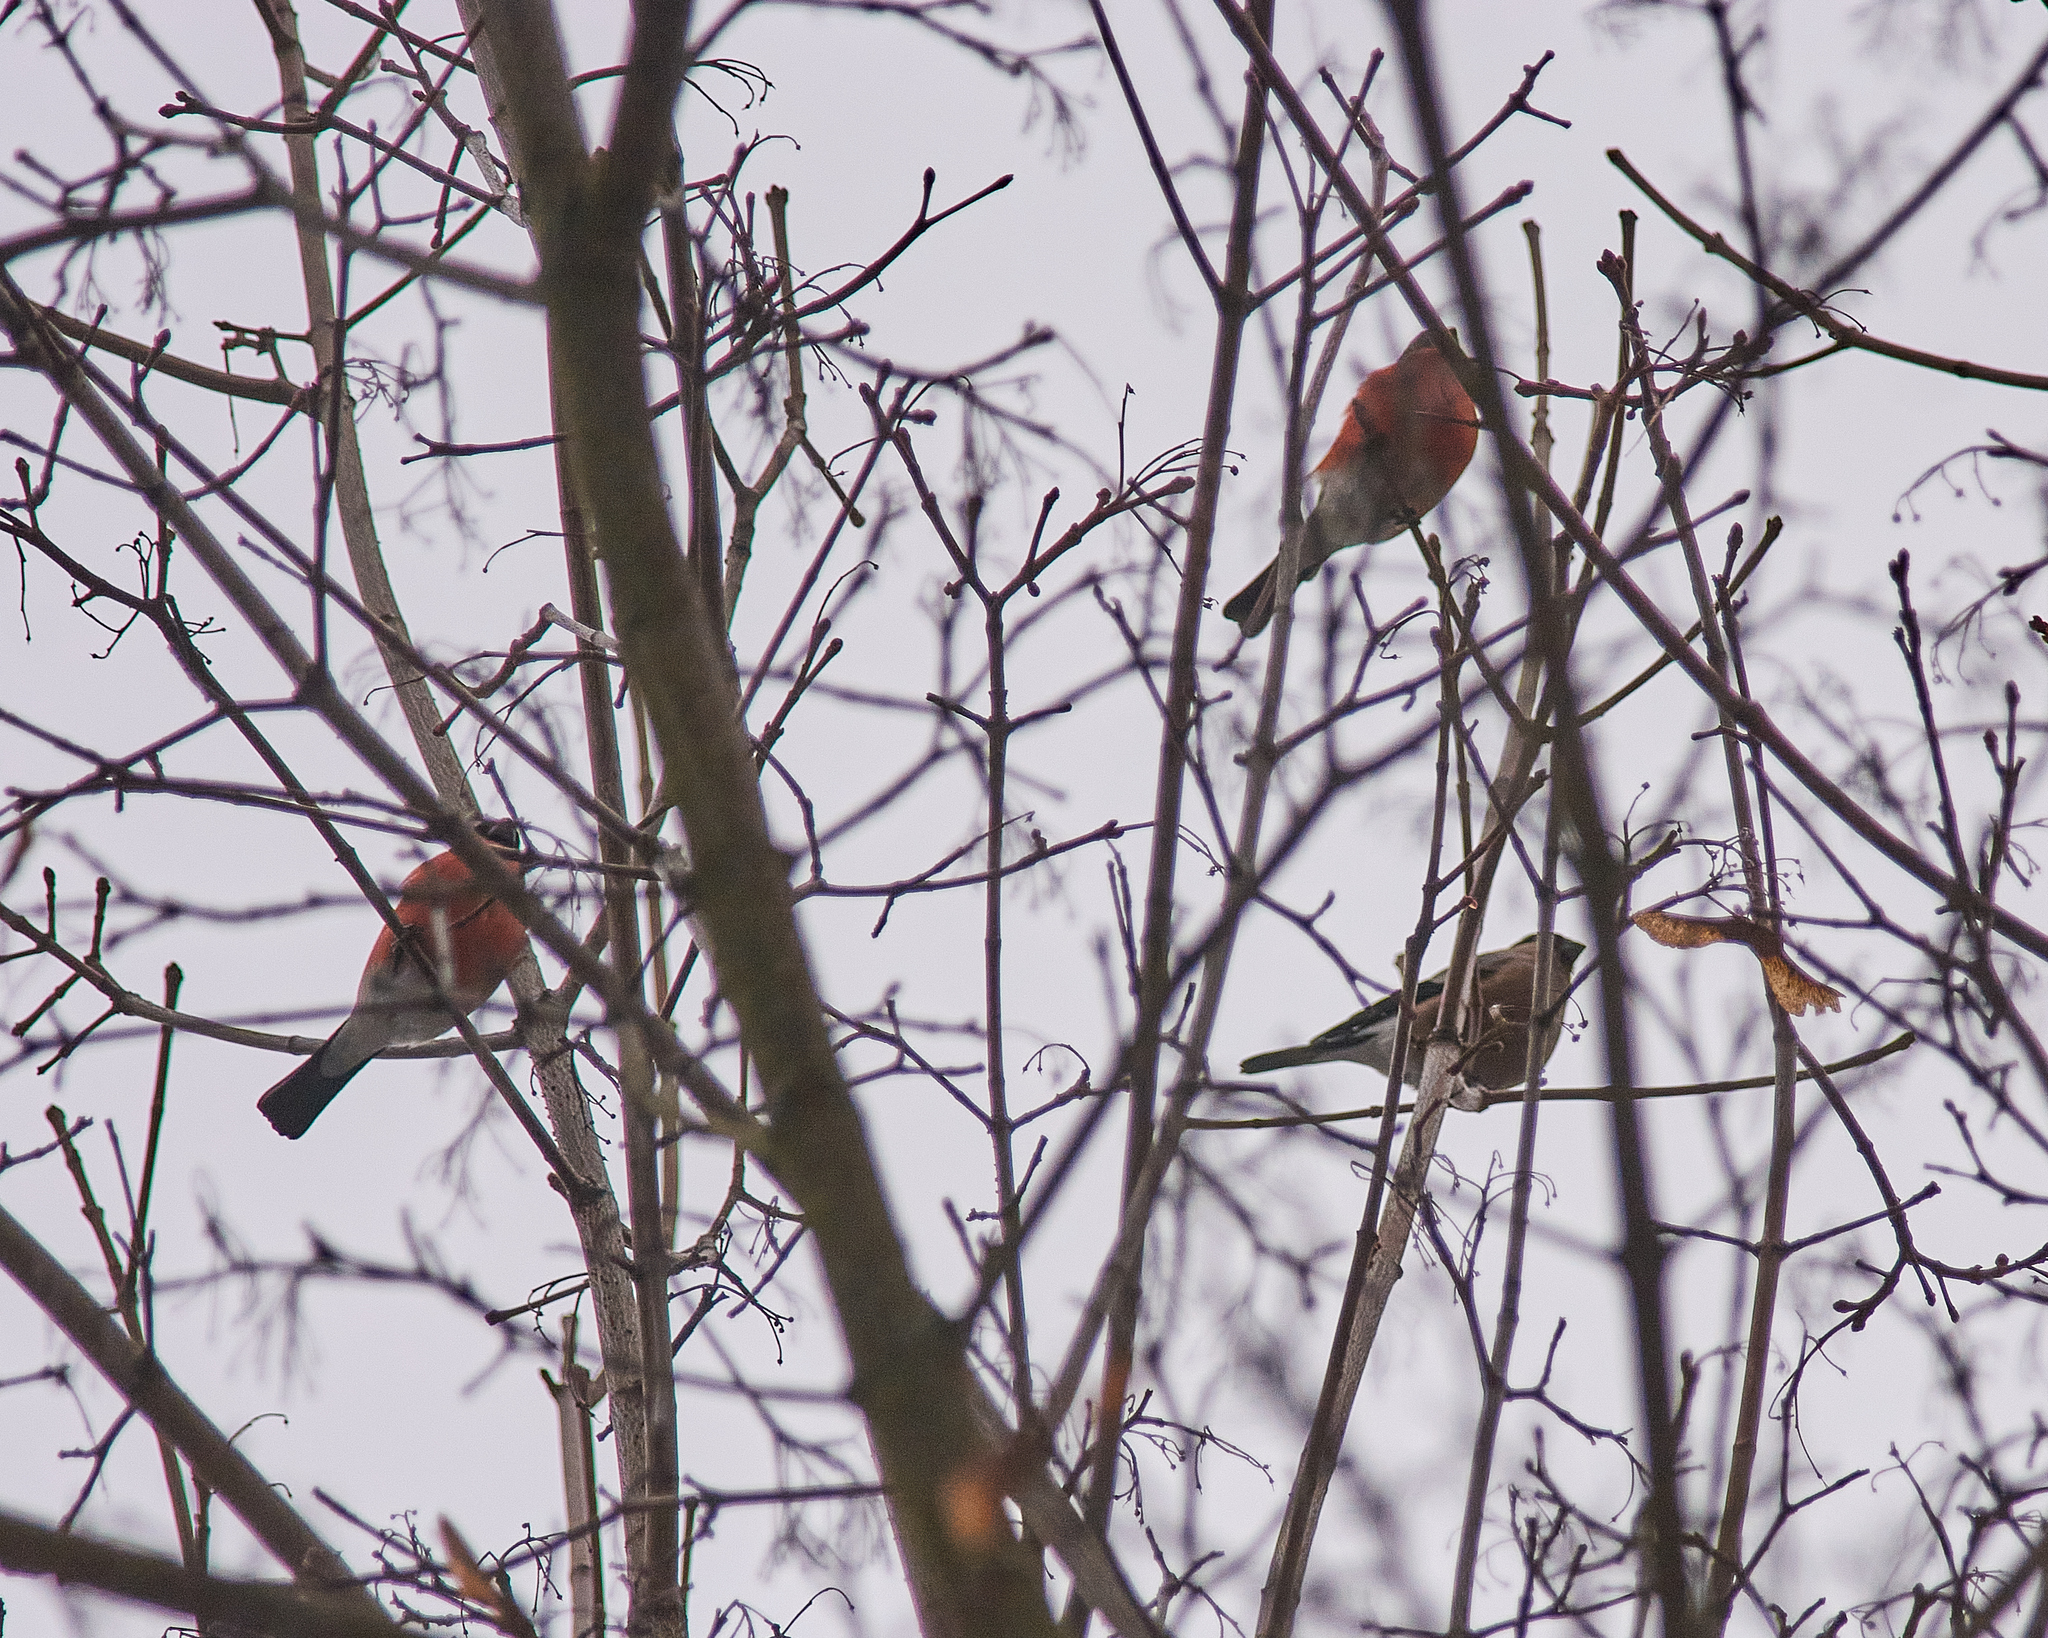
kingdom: Animalia
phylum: Chordata
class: Aves
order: Passeriformes
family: Fringillidae
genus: Pyrrhula
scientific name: Pyrrhula pyrrhula
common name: Eurasian bullfinch
